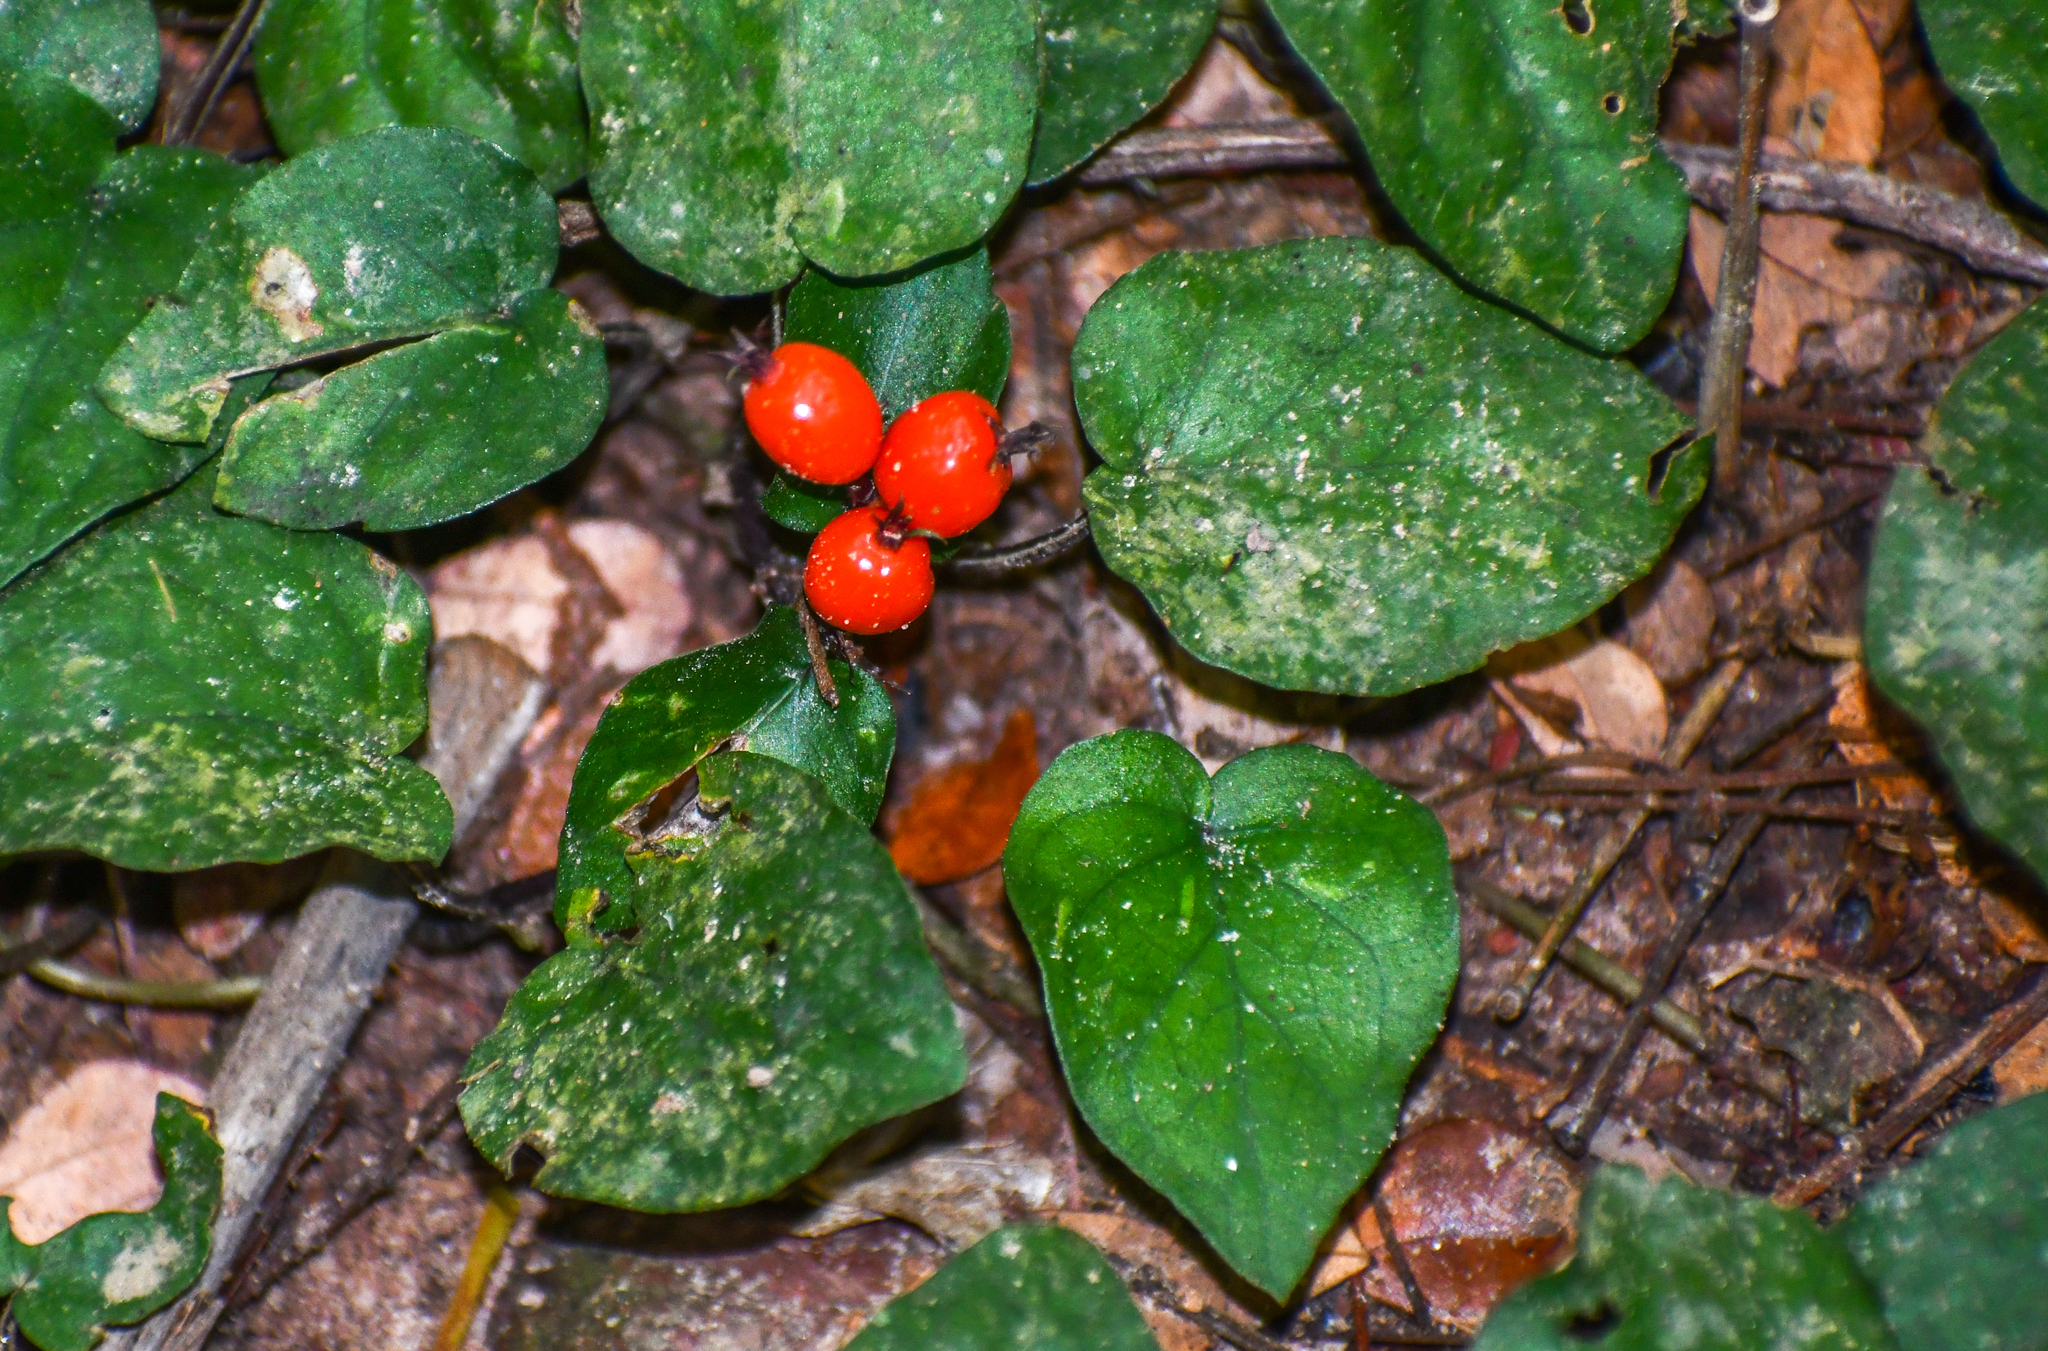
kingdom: Plantae
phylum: Tracheophyta
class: Magnoliopsida
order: Gentianales
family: Rubiaceae
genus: Geophila
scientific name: Geophila repens
